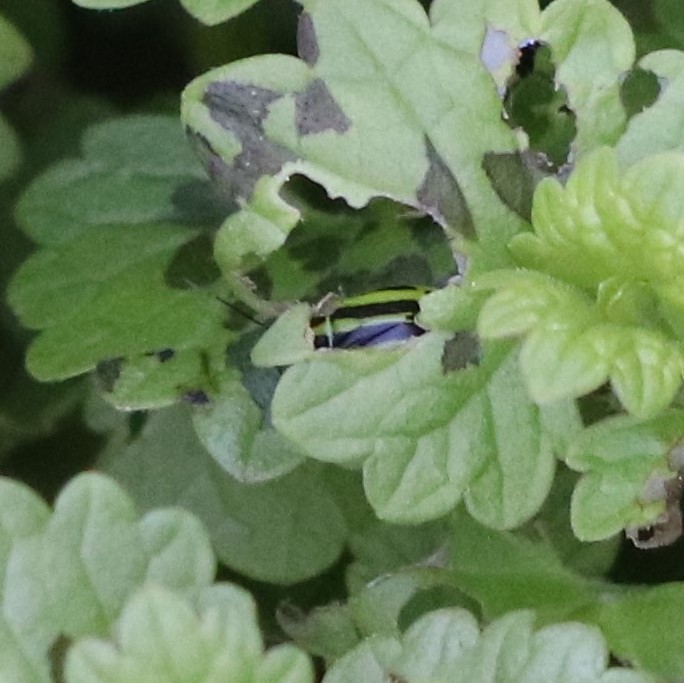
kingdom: Animalia
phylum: Arthropoda
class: Insecta
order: Hemiptera
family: Miridae
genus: Poecilocapsus
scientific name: Poecilocapsus lineatus
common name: Four-lined plant bug
